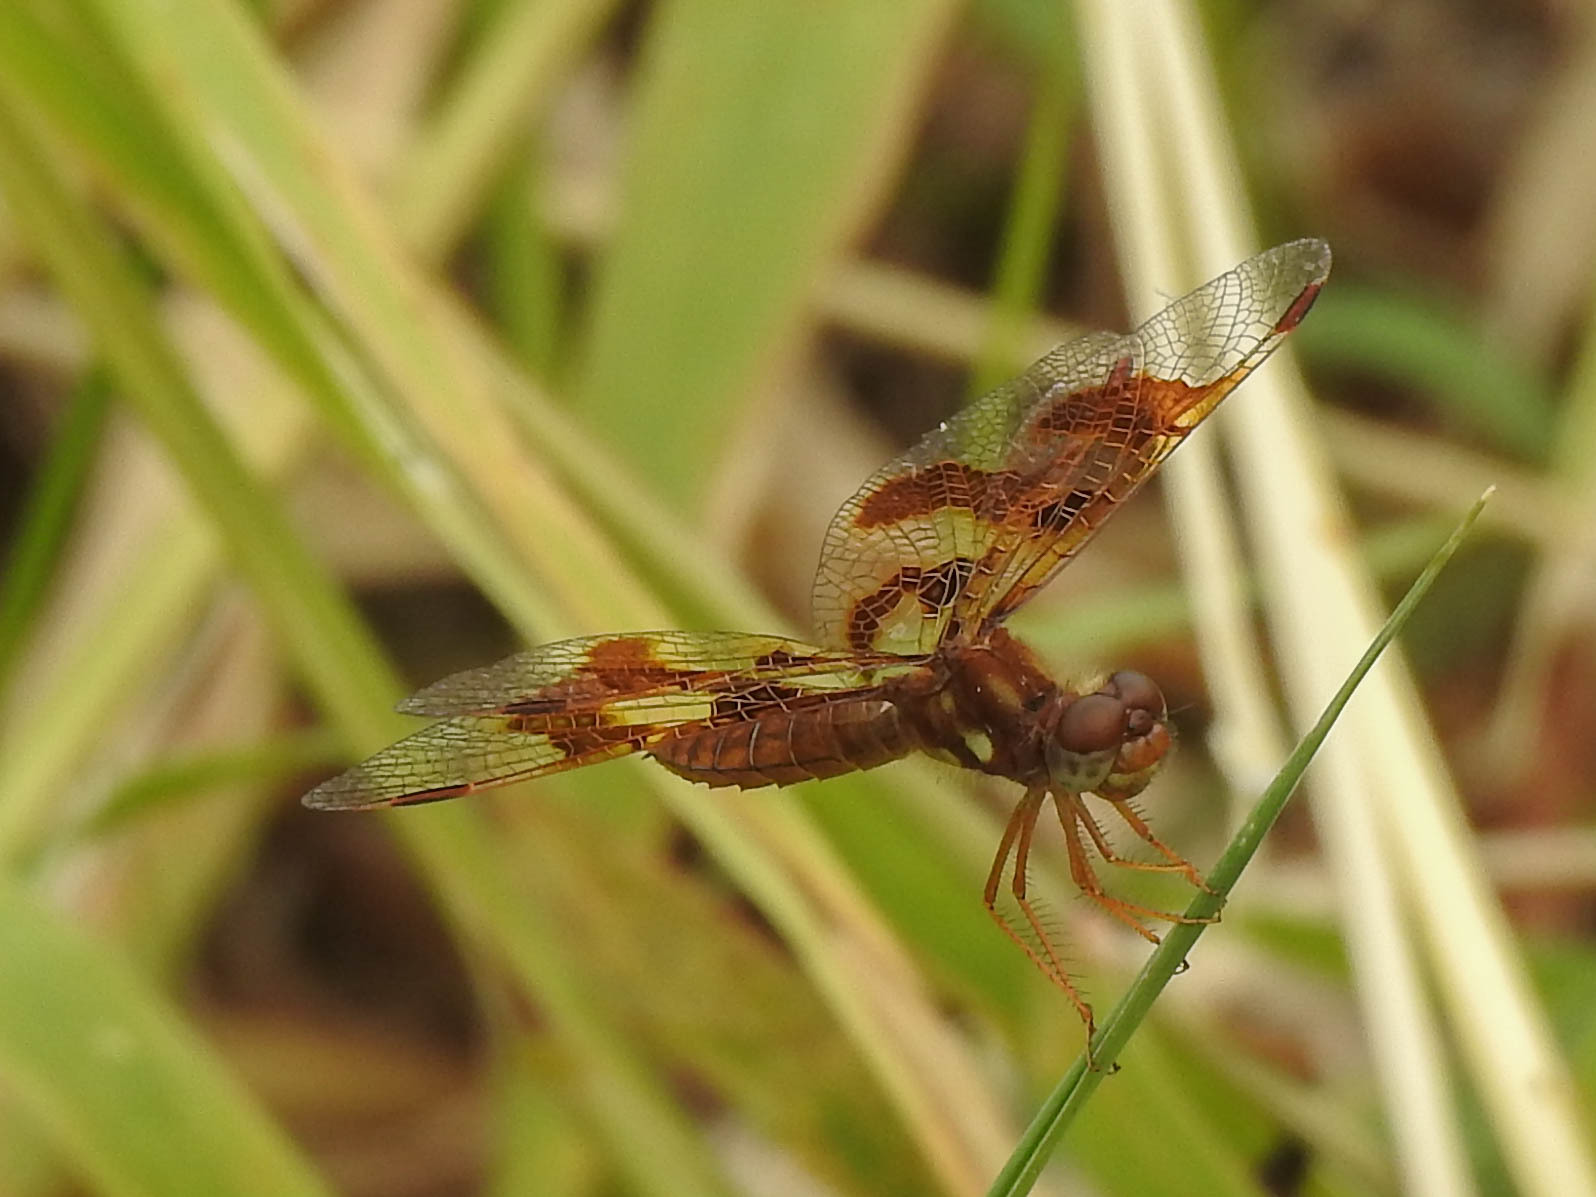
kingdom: Animalia
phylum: Arthropoda
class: Insecta
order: Odonata
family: Libellulidae
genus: Perithemis
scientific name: Perithemis tenera
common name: Eastern amberwing
